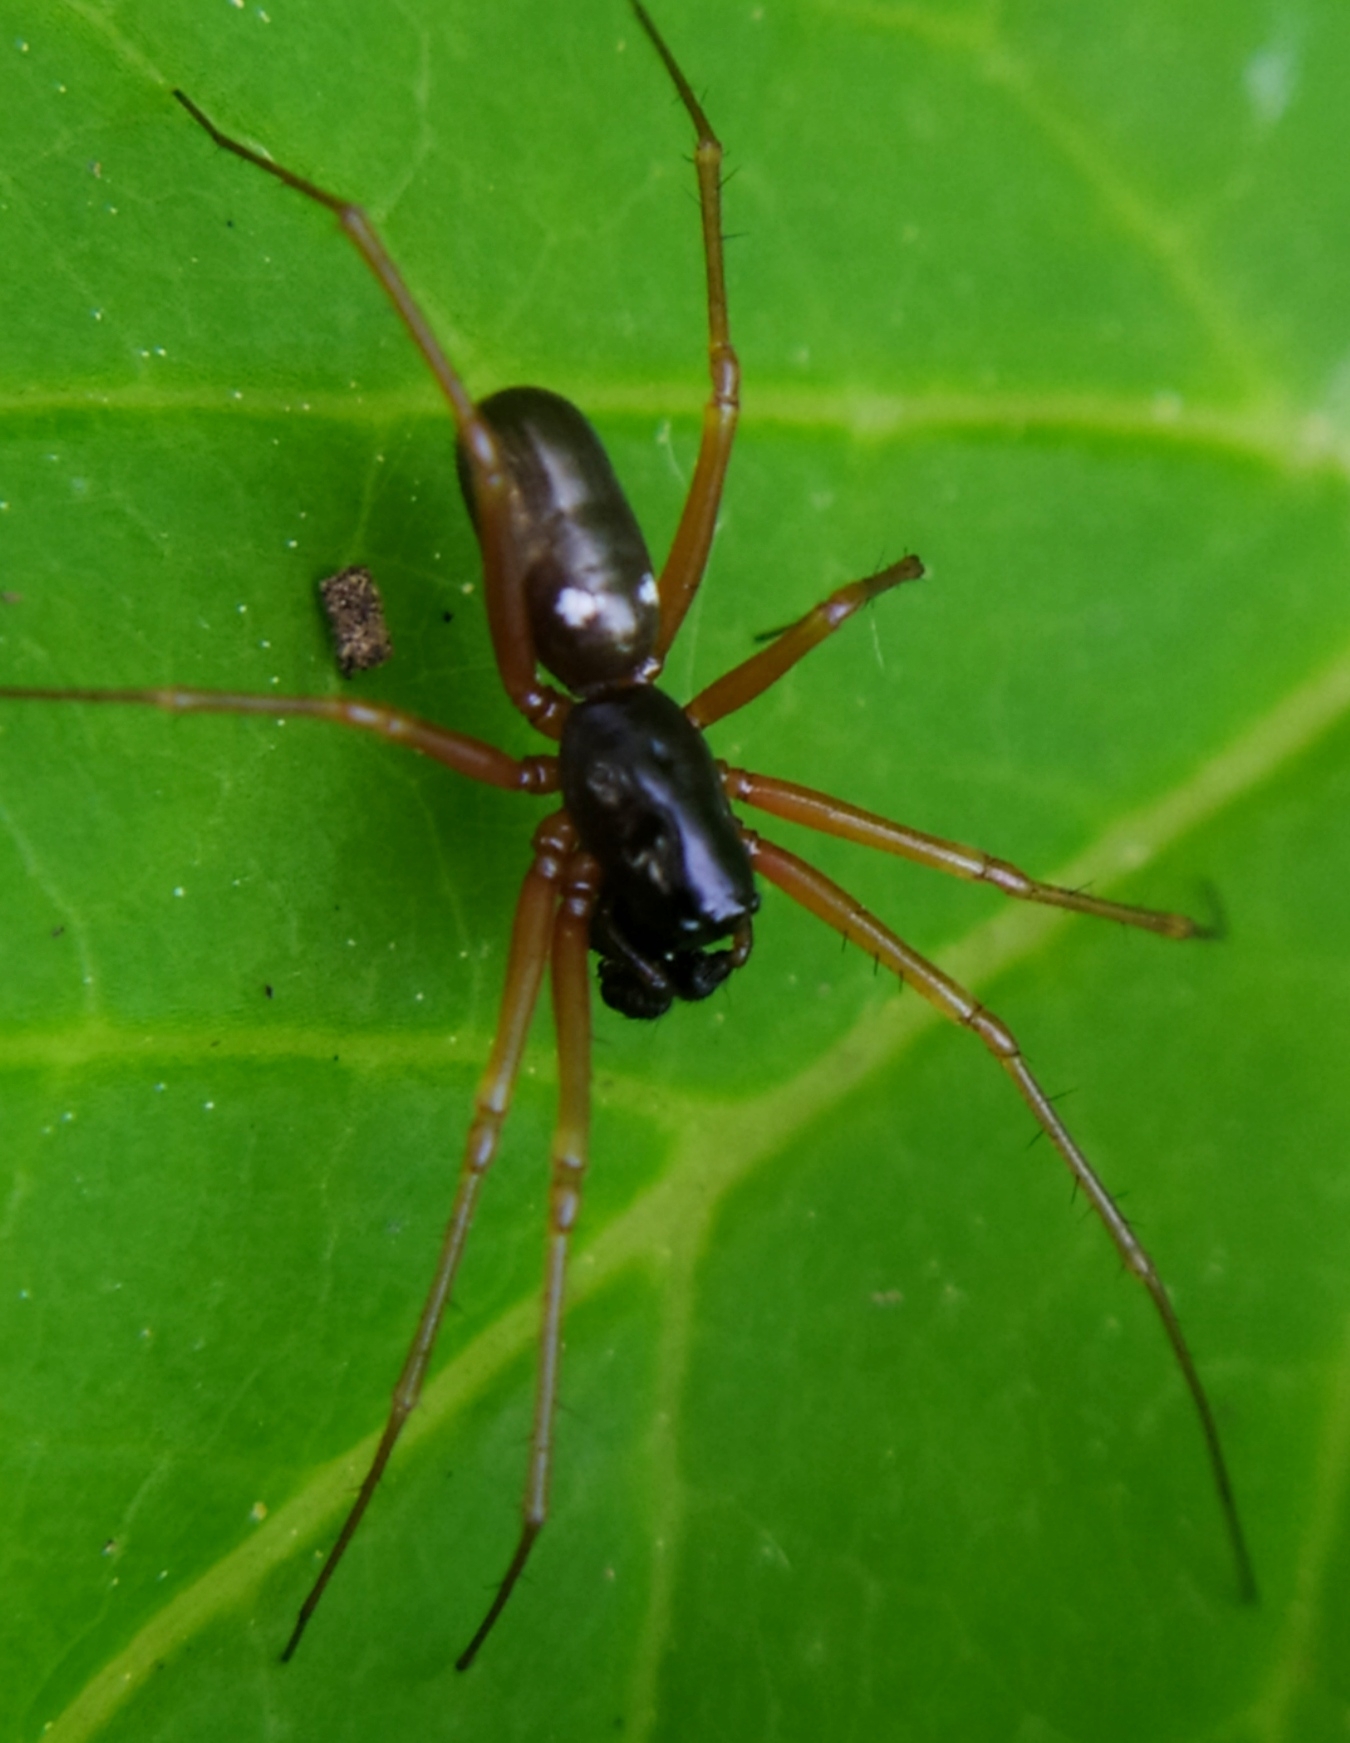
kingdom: Animalia
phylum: Arthropoda
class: Arachnida
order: Araneae
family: Linyphiidae
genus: Linyphia
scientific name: Linyphia hortensis
